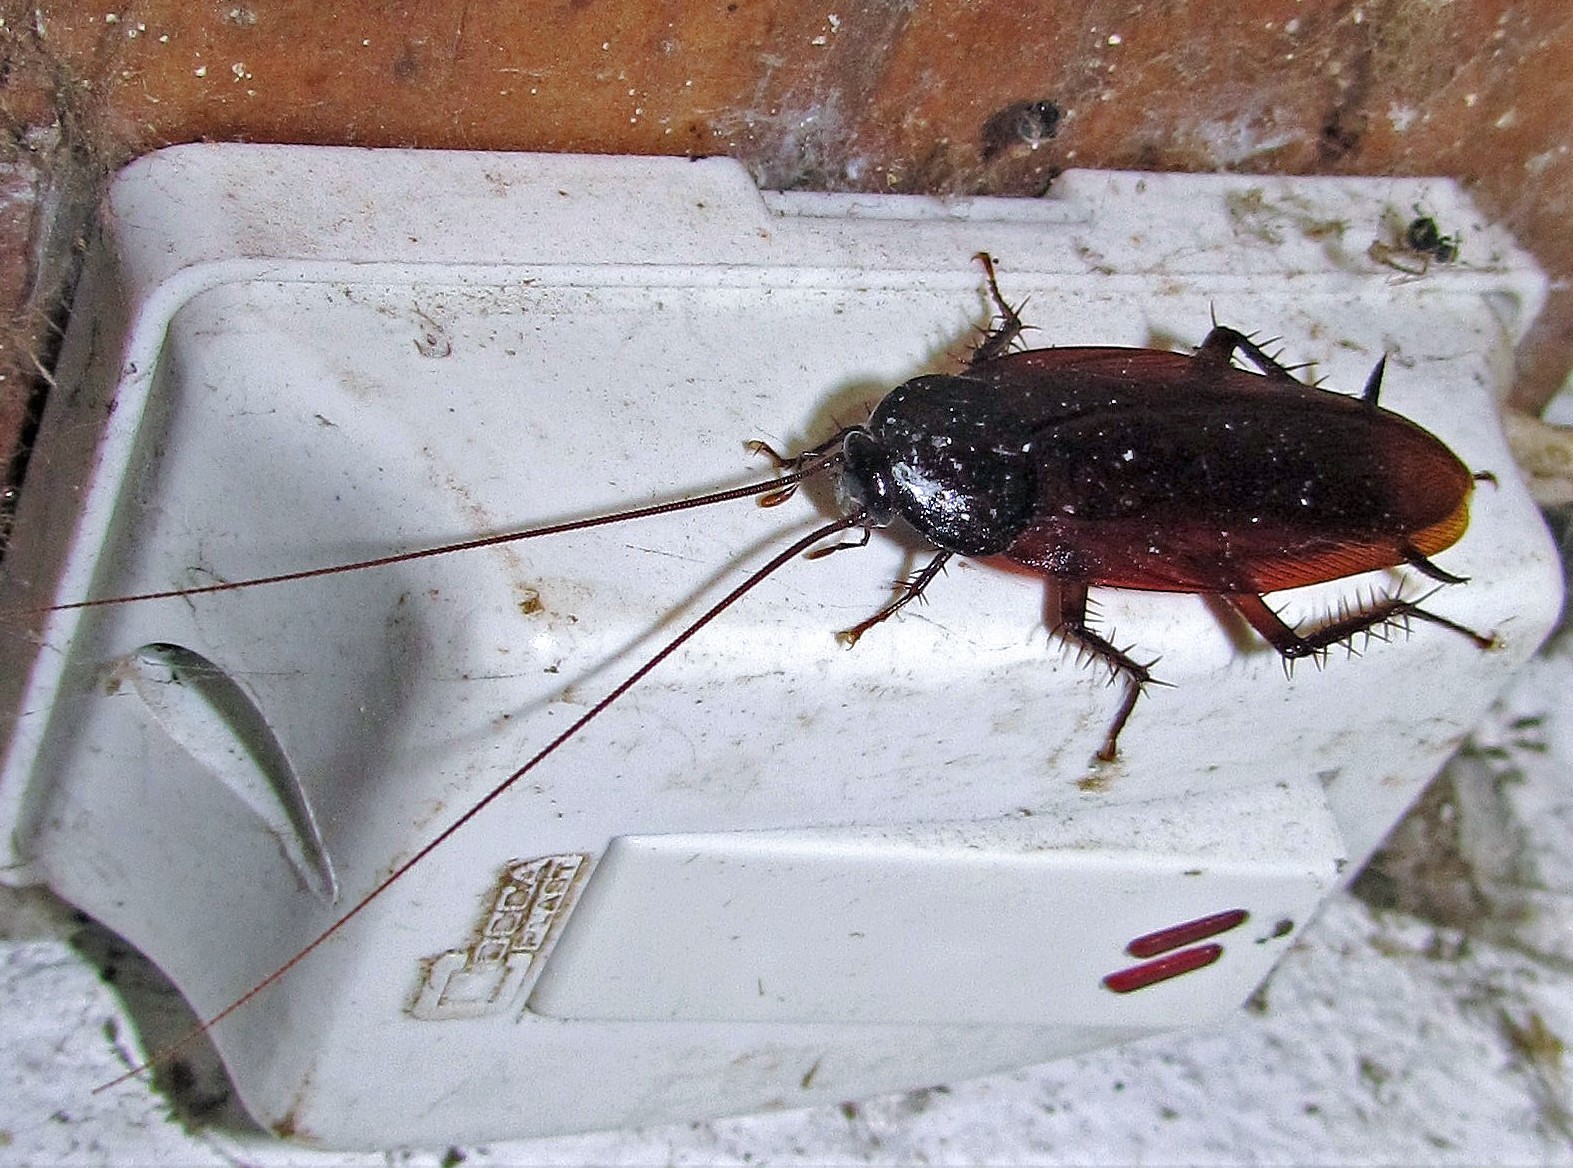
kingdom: Animalia
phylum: Arthropoda
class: Insecta
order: Blattodea
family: Blattidae
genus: Periplaneta
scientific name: Periplaneta fuliginosa
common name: Smokeybrown cockroad
